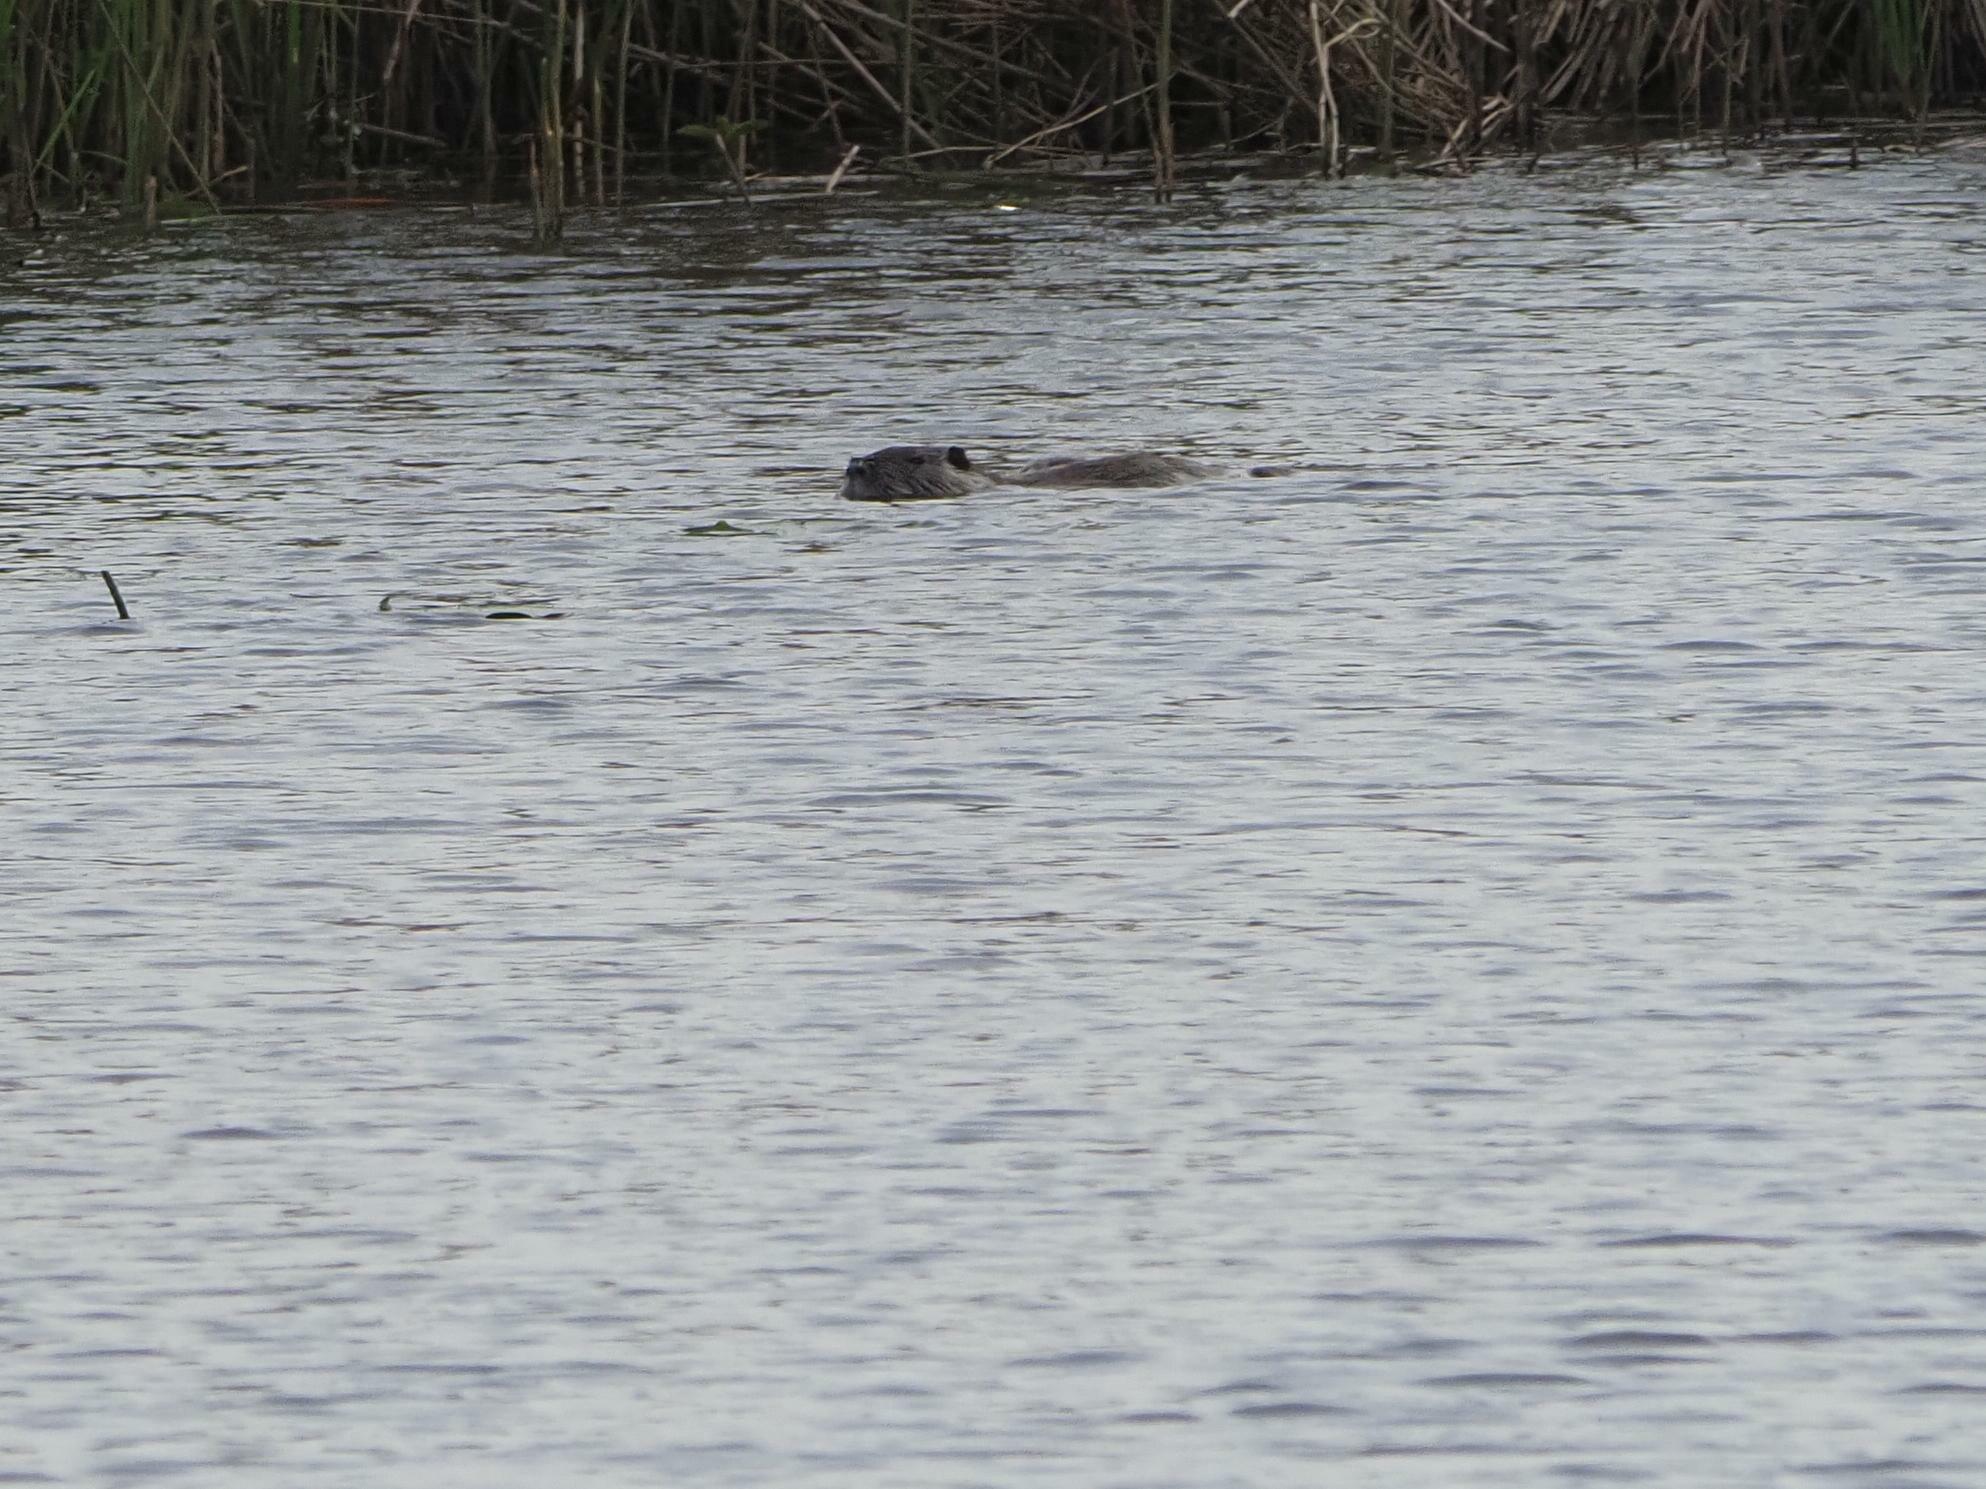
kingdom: Animalia
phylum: Chordata
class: Mammalia
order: Rodentia
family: Myocastoridae
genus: Myocastor
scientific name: Myocastor coypus
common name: Coypu
